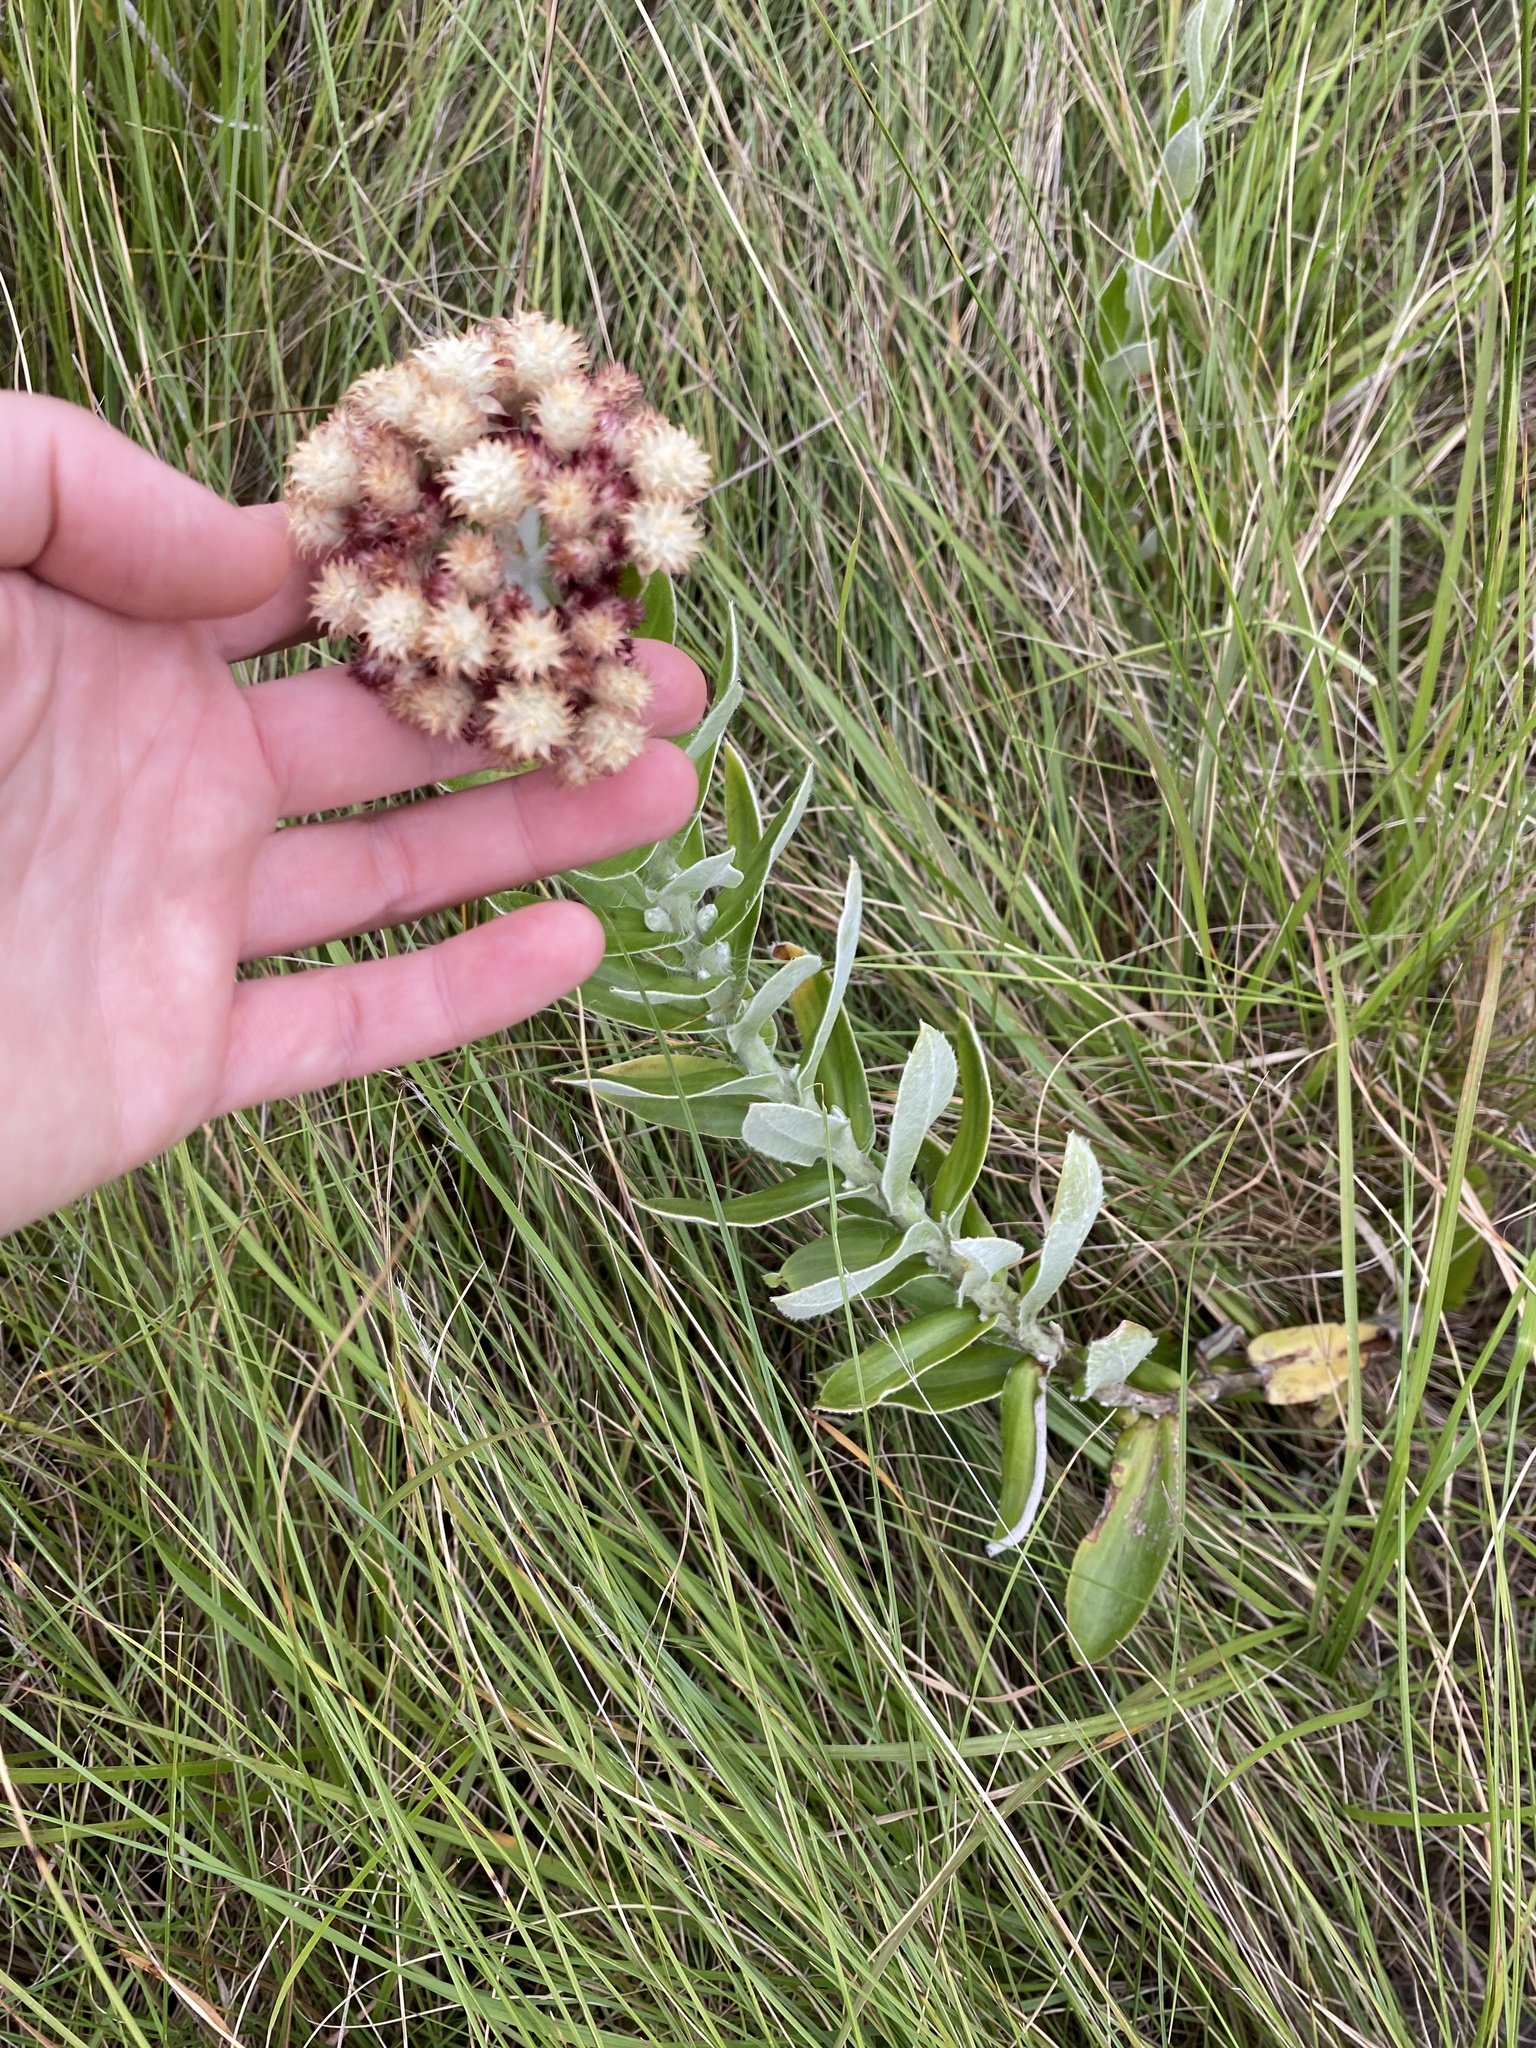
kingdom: Plantae
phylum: Tracheophyta
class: Magnoliopsida
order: Asterales
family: Asteraceae
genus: Helichrysum
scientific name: Helichrysum appendiculatum
